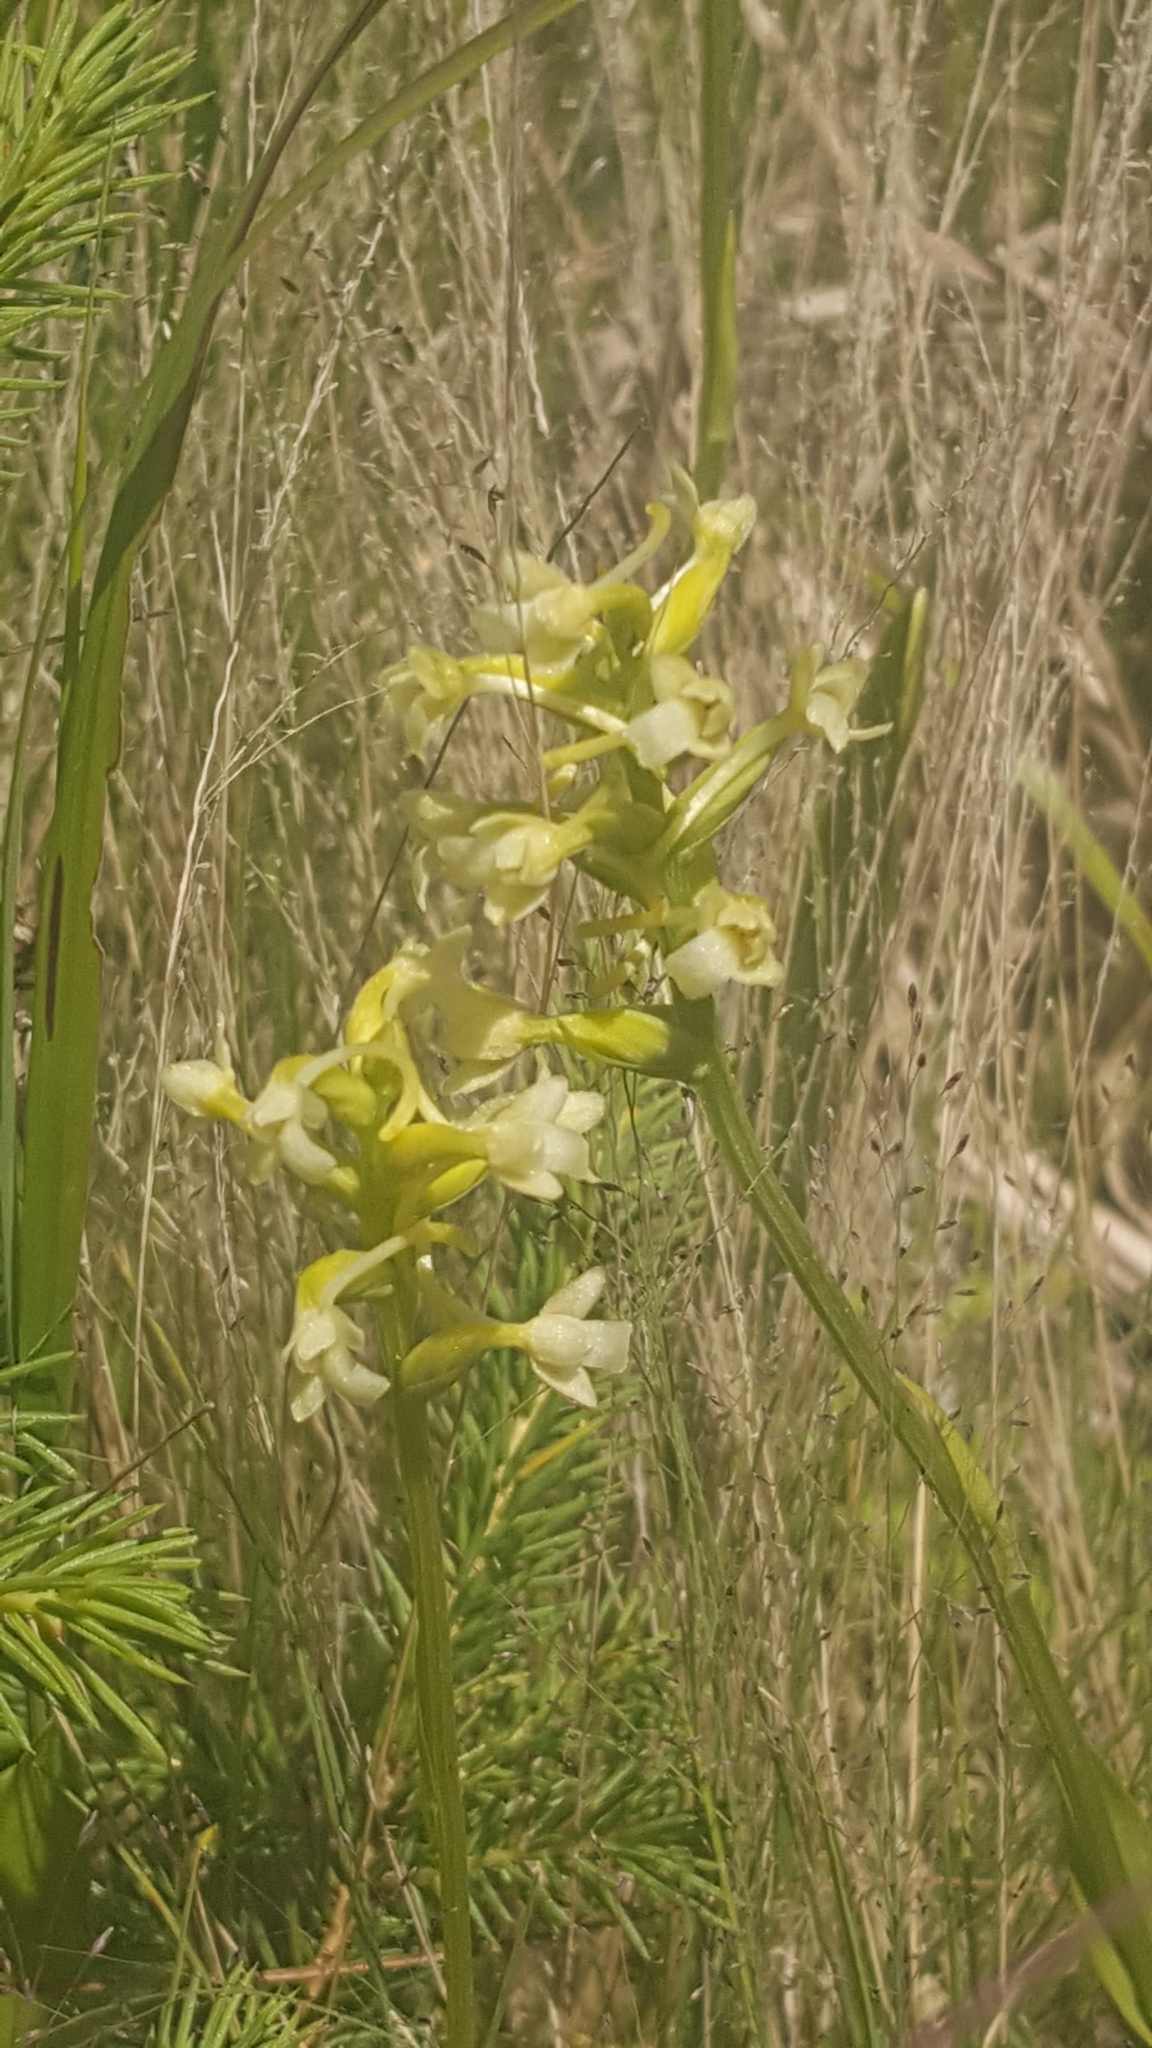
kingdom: Plantae
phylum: Tracheophyta
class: Liliopsida
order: Asparagales
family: Orchidaceae
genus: Platanthera
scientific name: Platanthera clavellata
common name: Club-spur orchid
